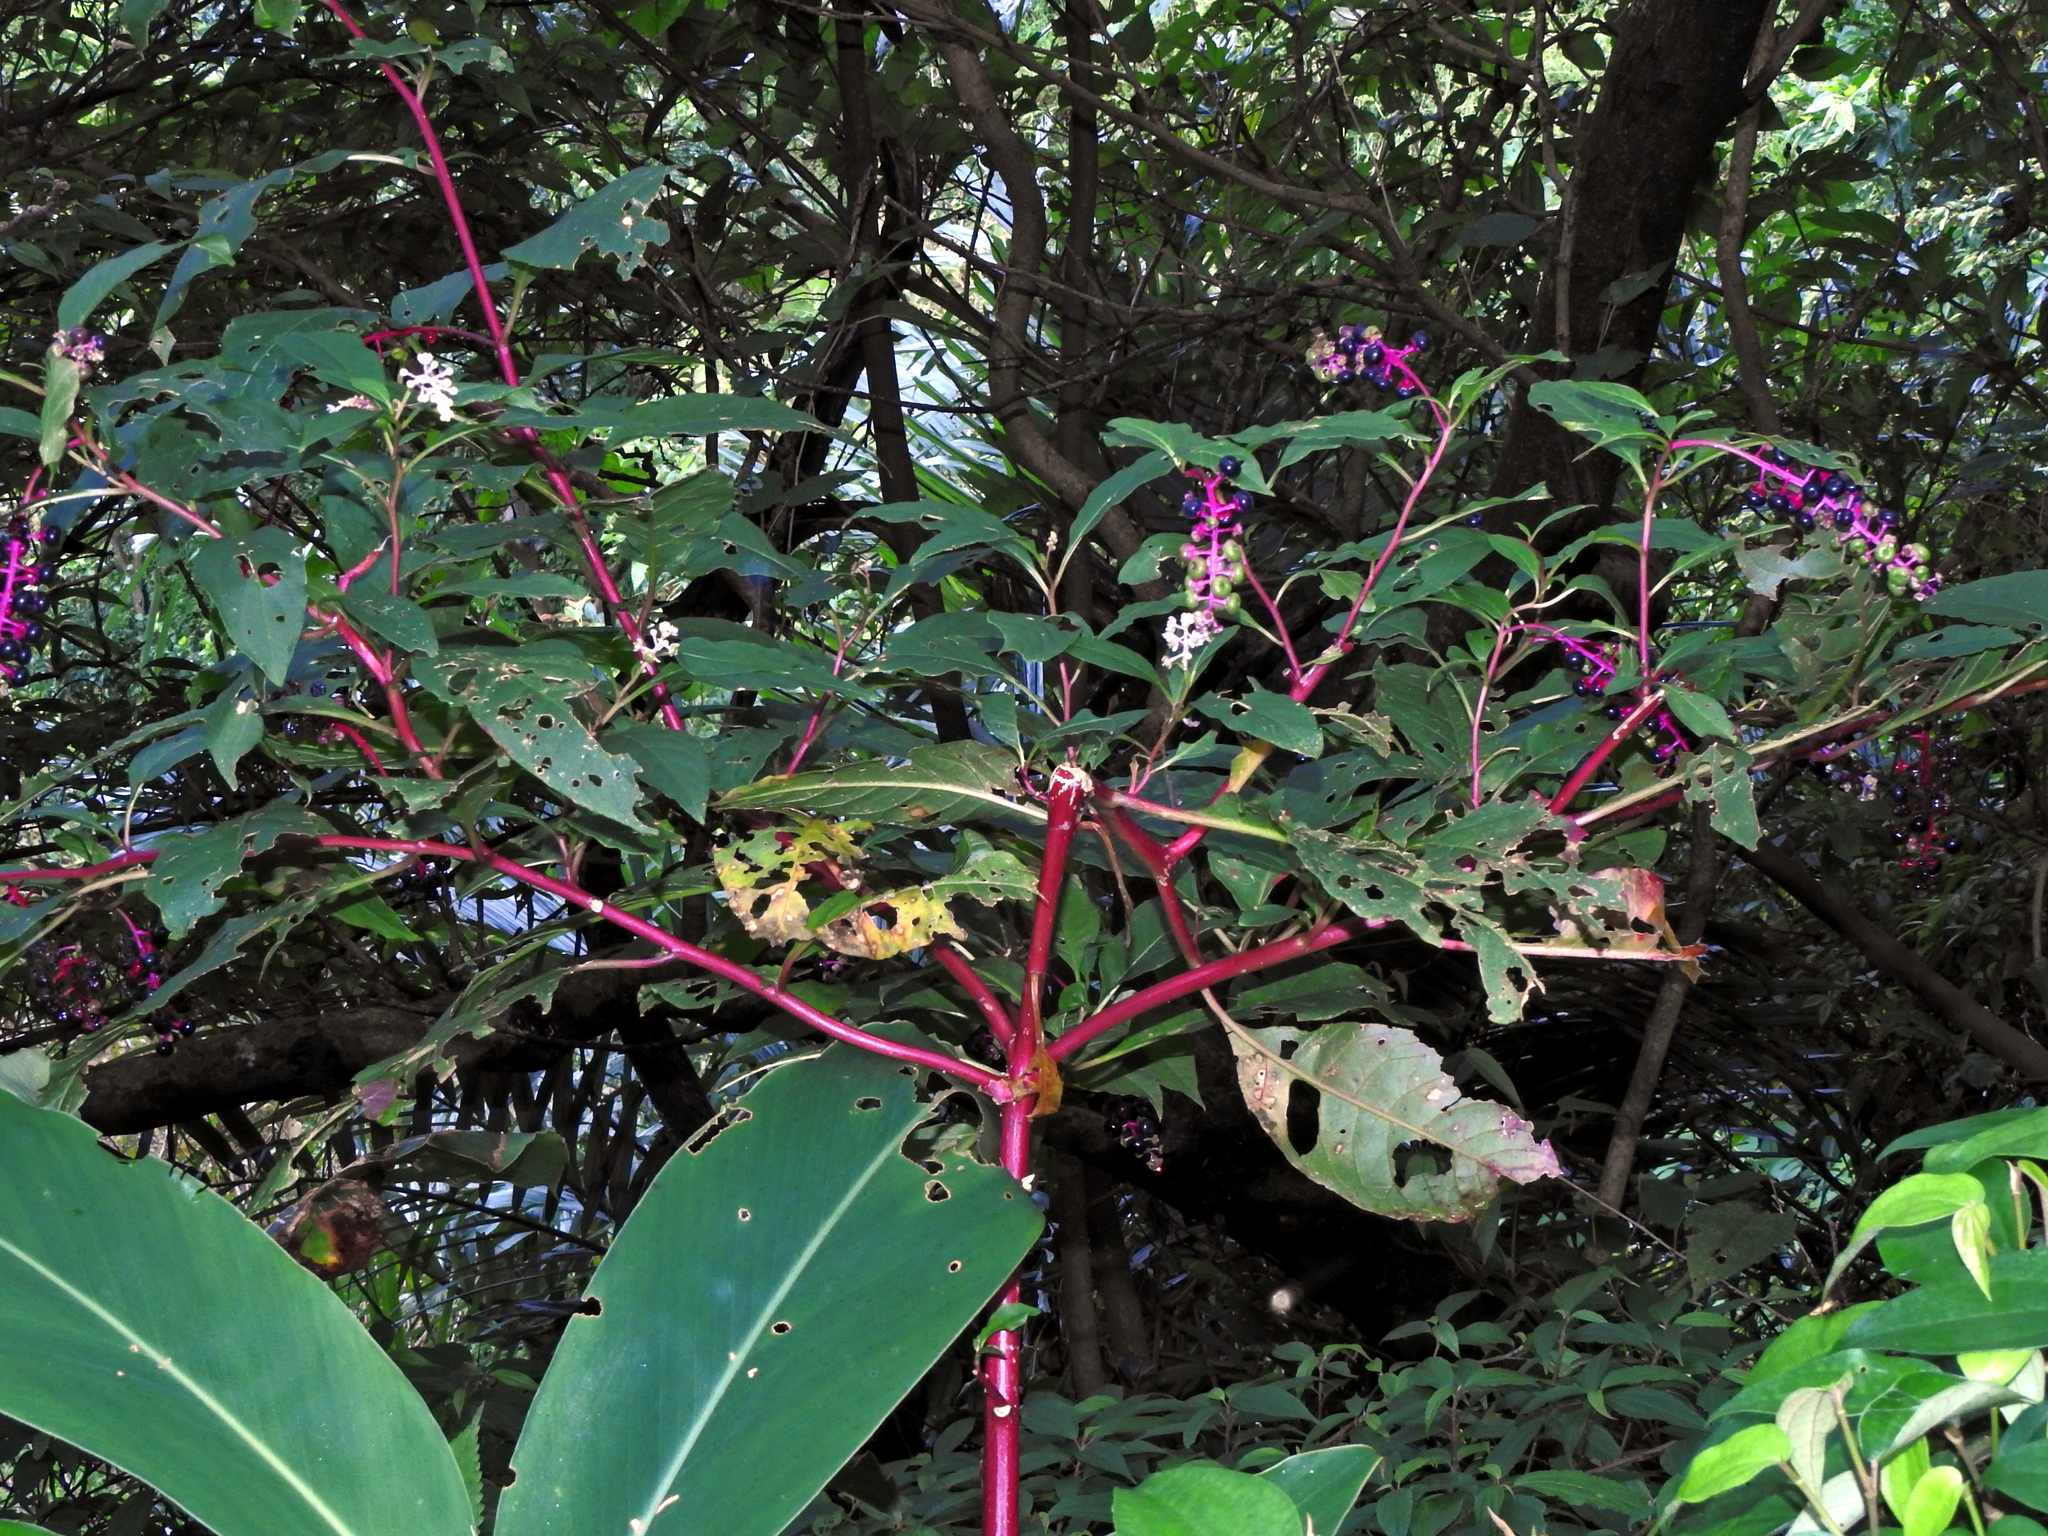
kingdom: Plantae
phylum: Tracheophyta
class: Magnoliopsida
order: Caryophyllales
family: Phytolaccaceae
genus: Phytolacca
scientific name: Phytolacca americana
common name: American pokeweed
